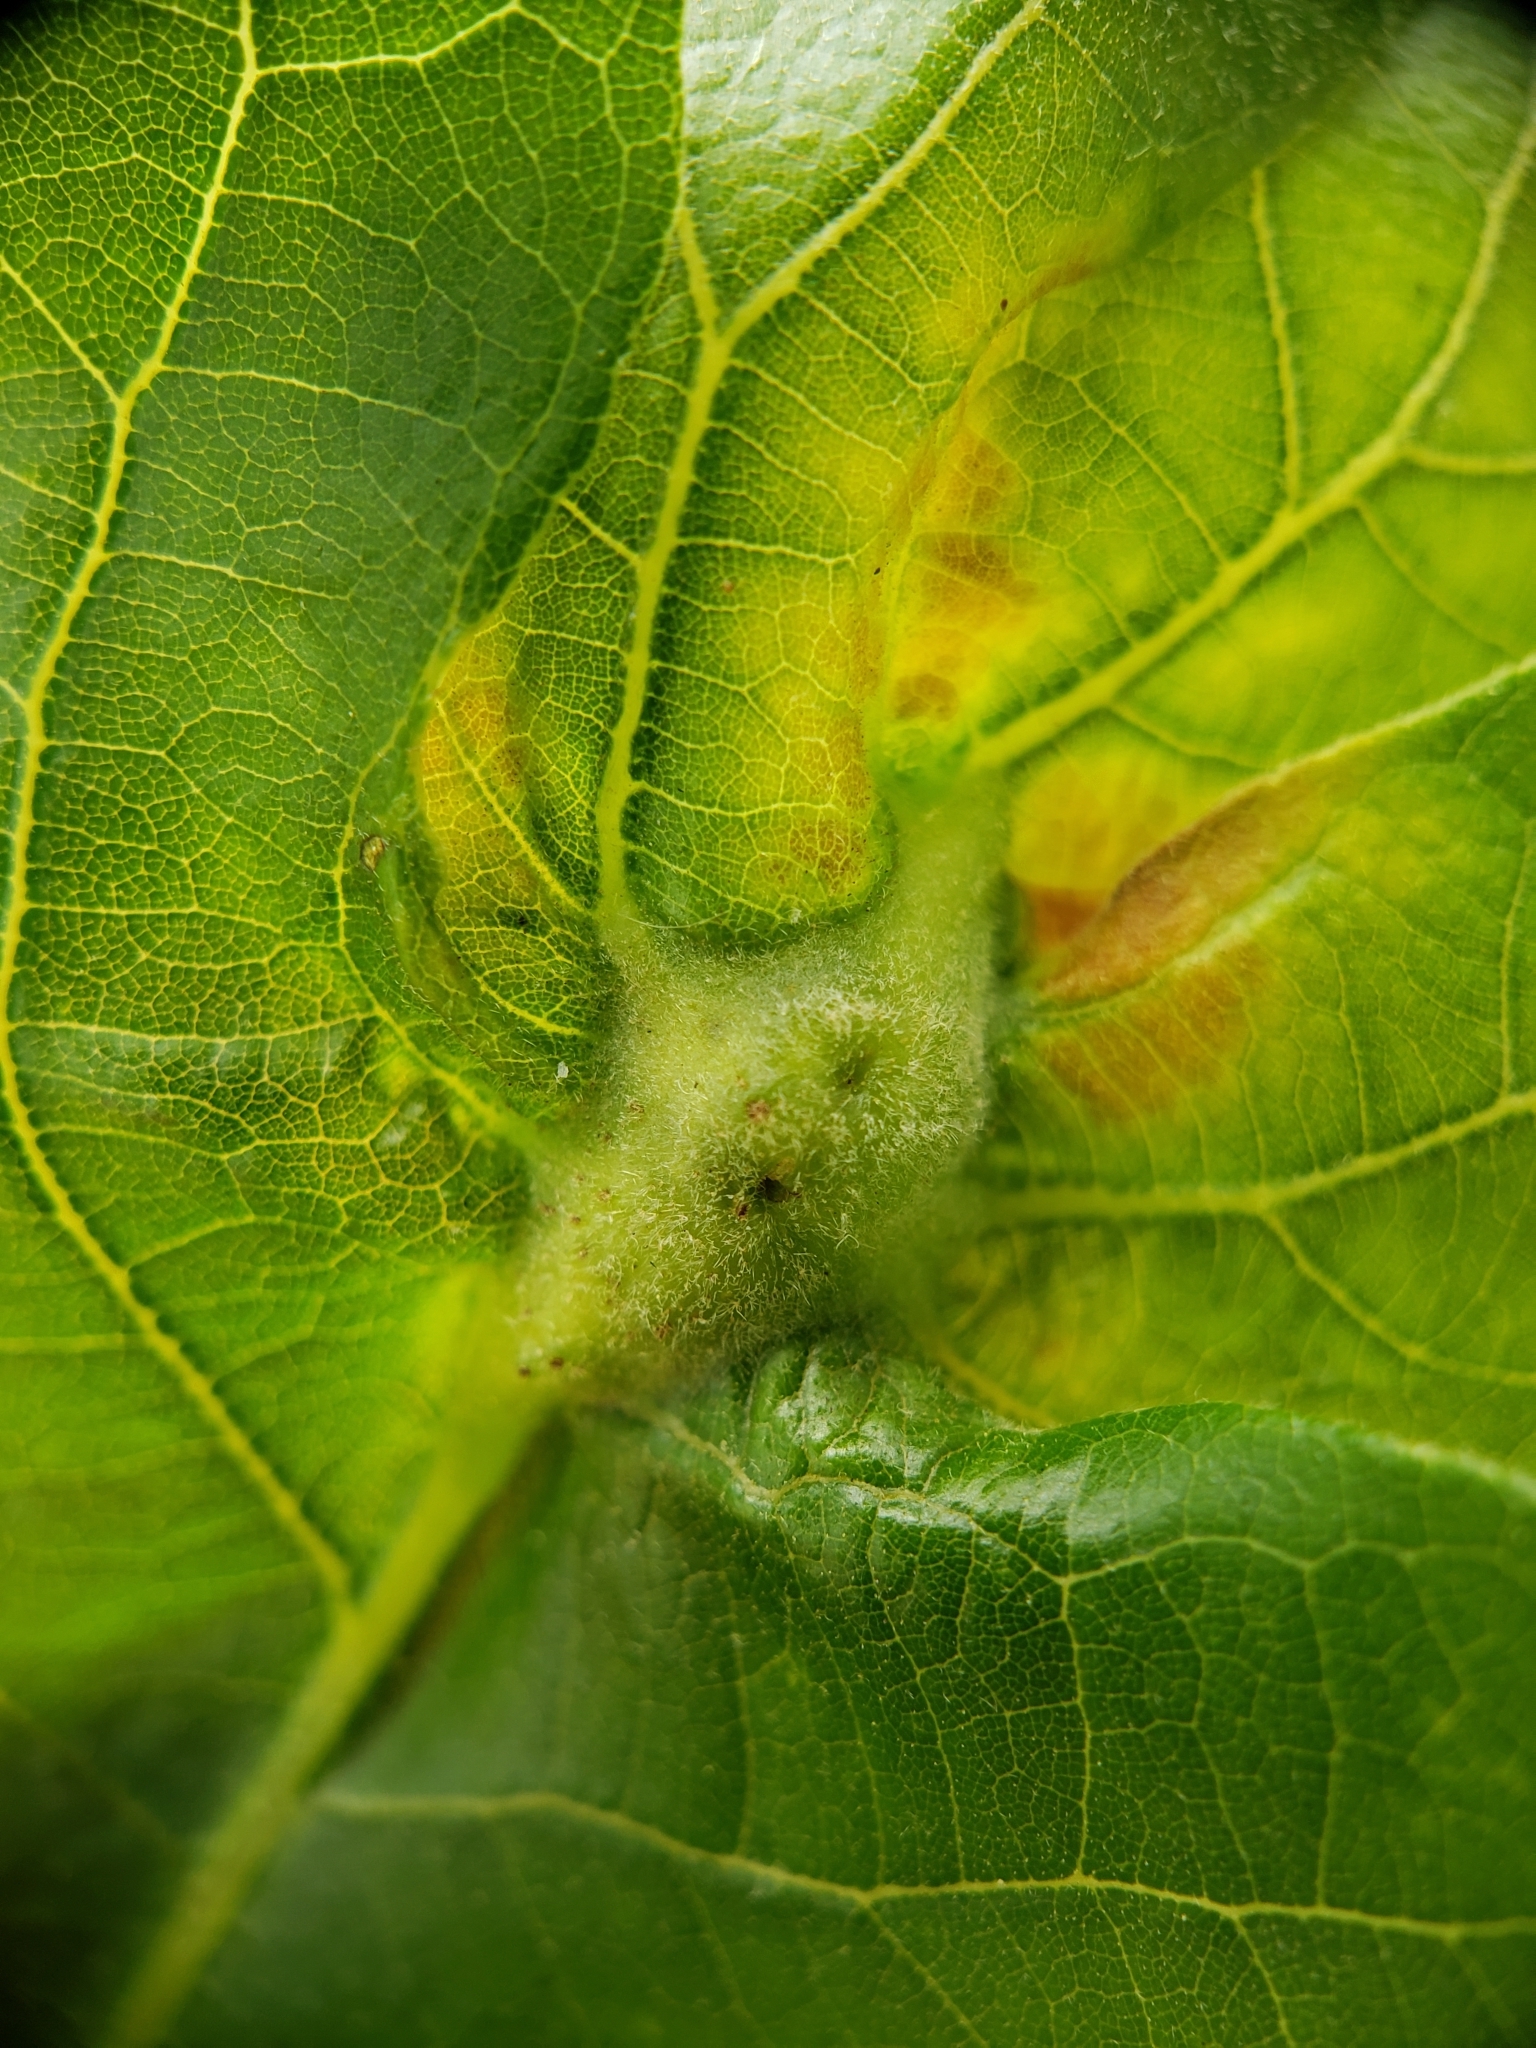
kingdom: Animalia
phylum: Arthropoda
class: Insecta
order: Hymenoptera
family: Cynipidae
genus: Bassettia
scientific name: Bassettia flavipes
